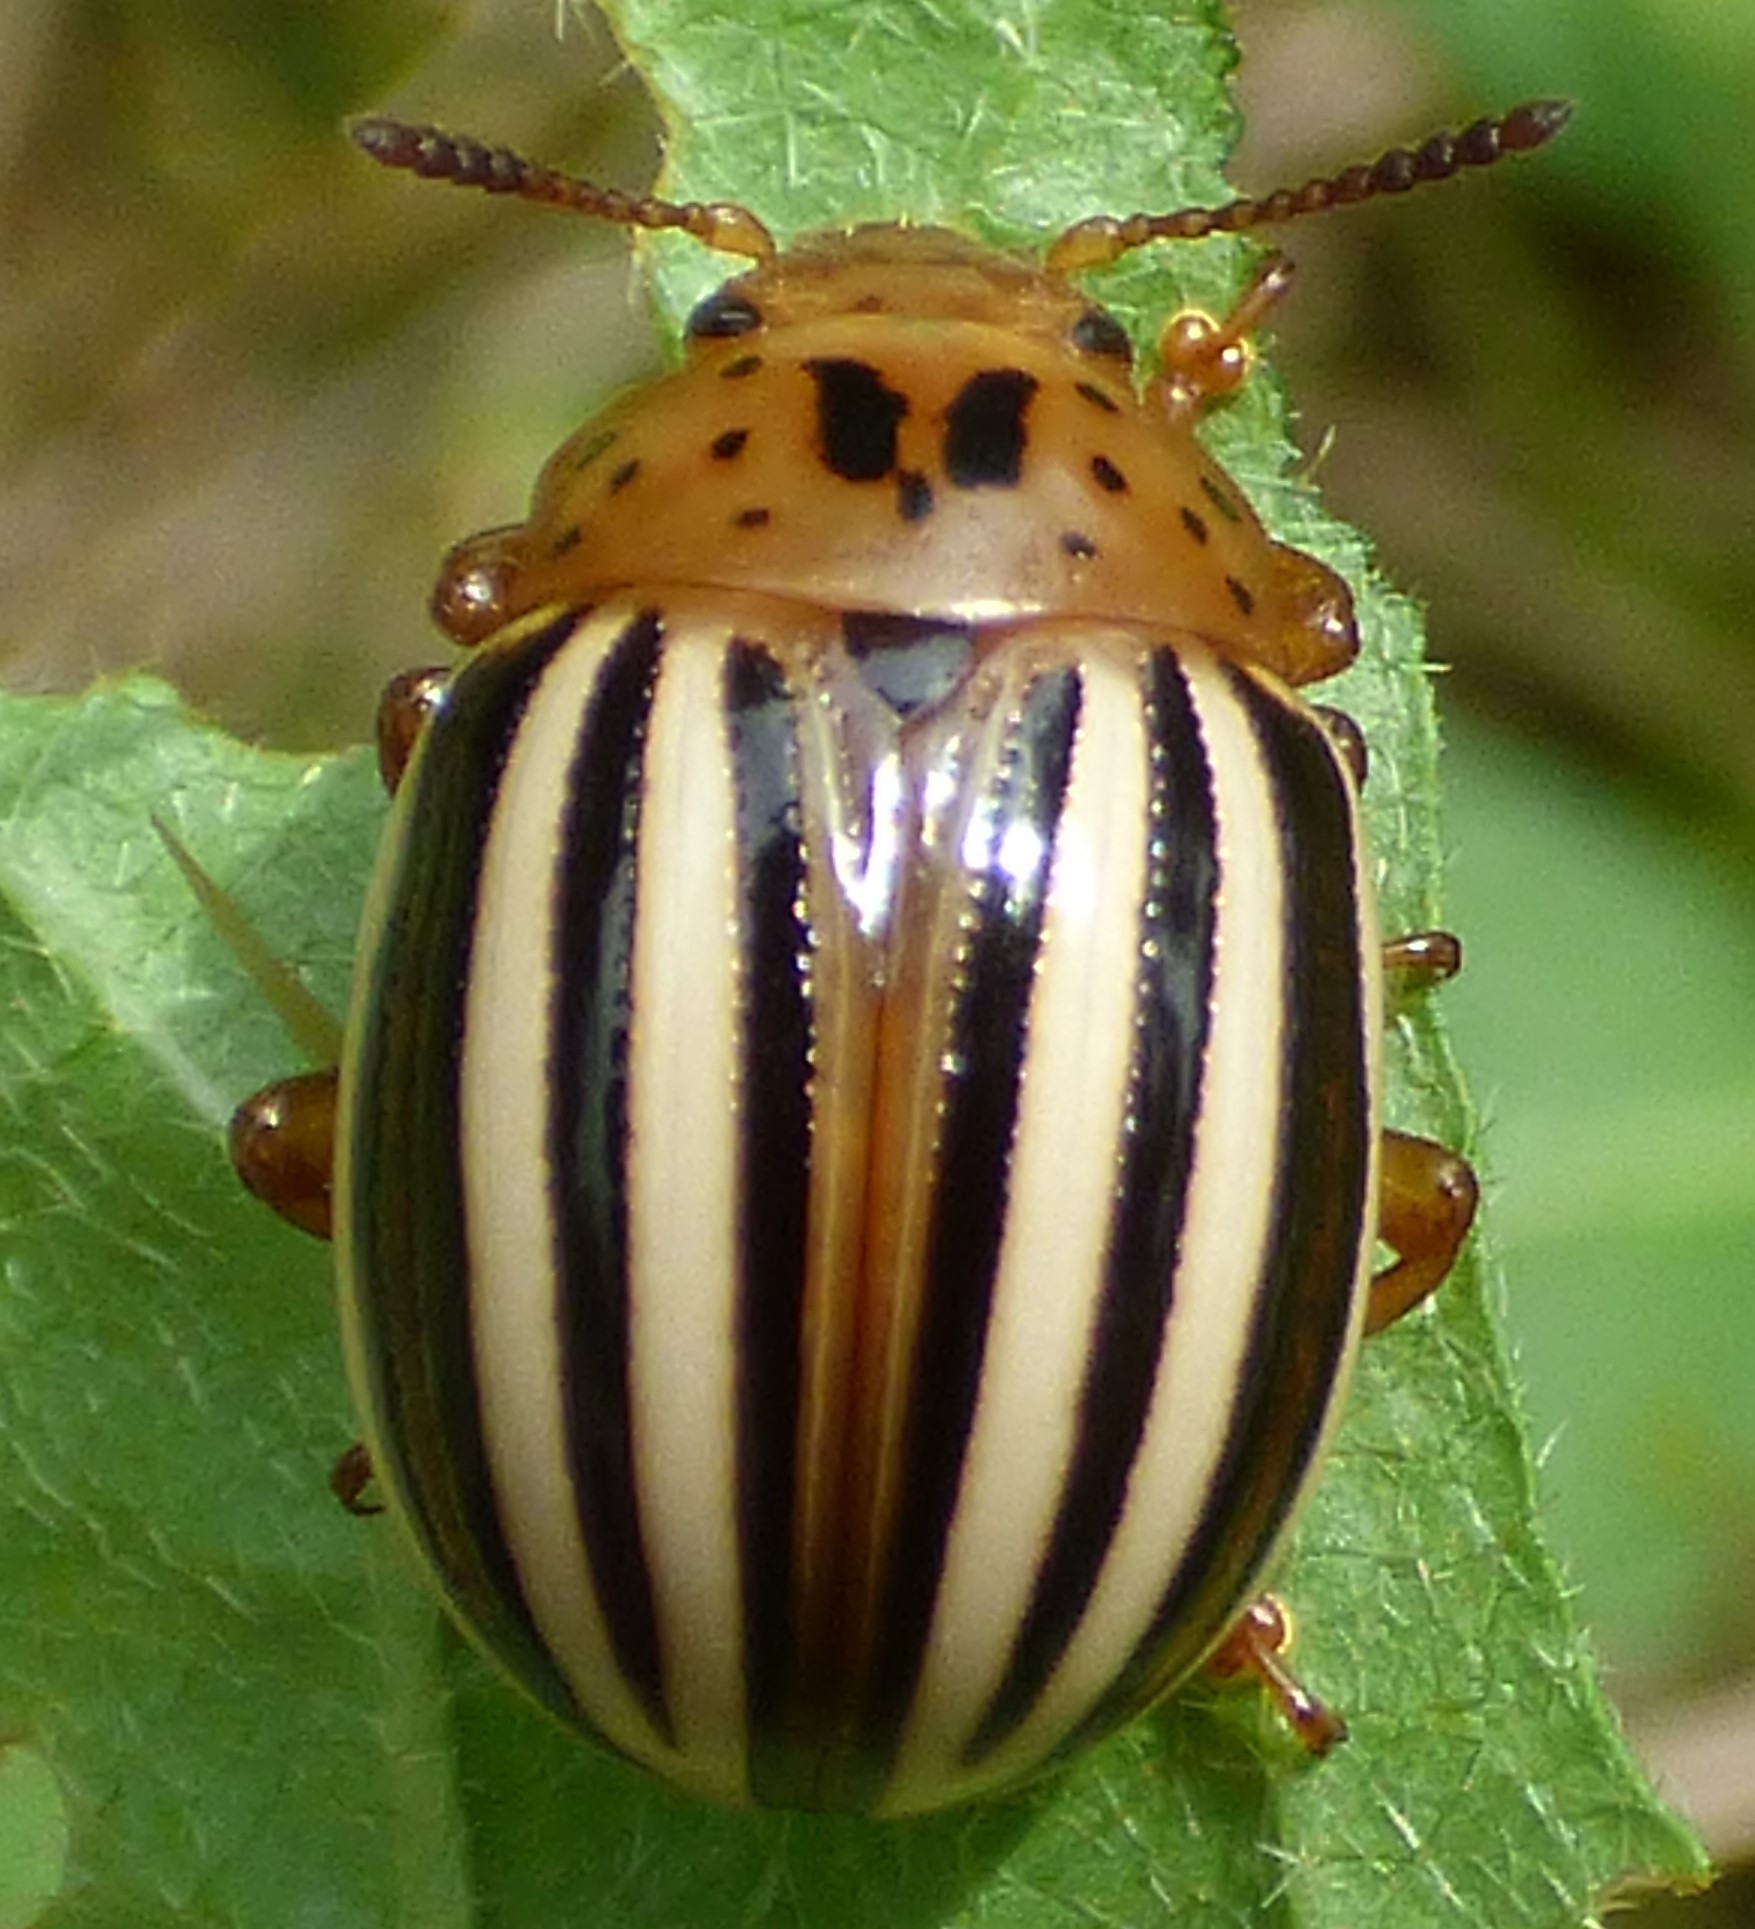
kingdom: Animalia
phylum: Arthropoda
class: Insecta
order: Coleoptera
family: Chrysomelidae
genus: Leptinotarsa
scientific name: Leptinotarsa juncta
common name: False potato beetle
